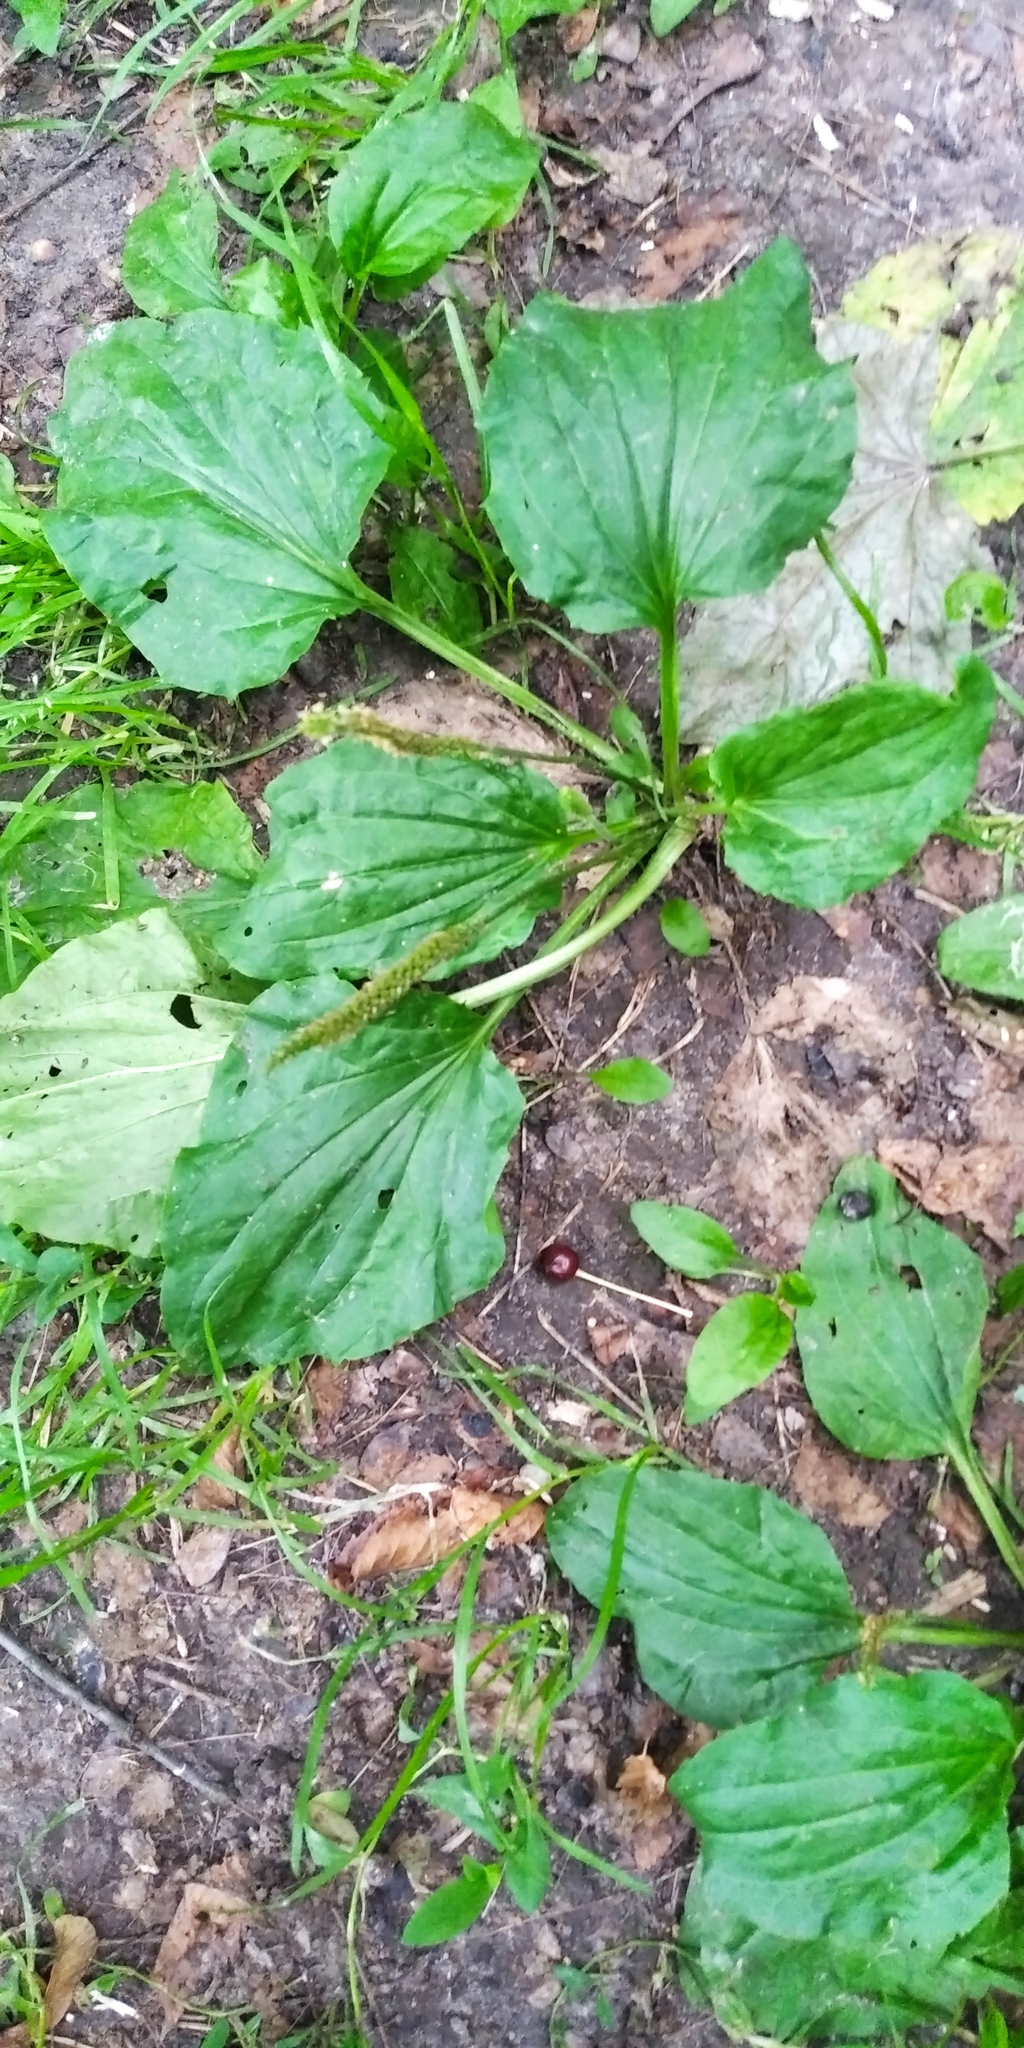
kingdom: Plantae
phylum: Tracheophyta
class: Magnoliopsida
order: Lamiales
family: Plantaginaceae
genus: Plantago
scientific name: Plantago major
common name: Common plantain
